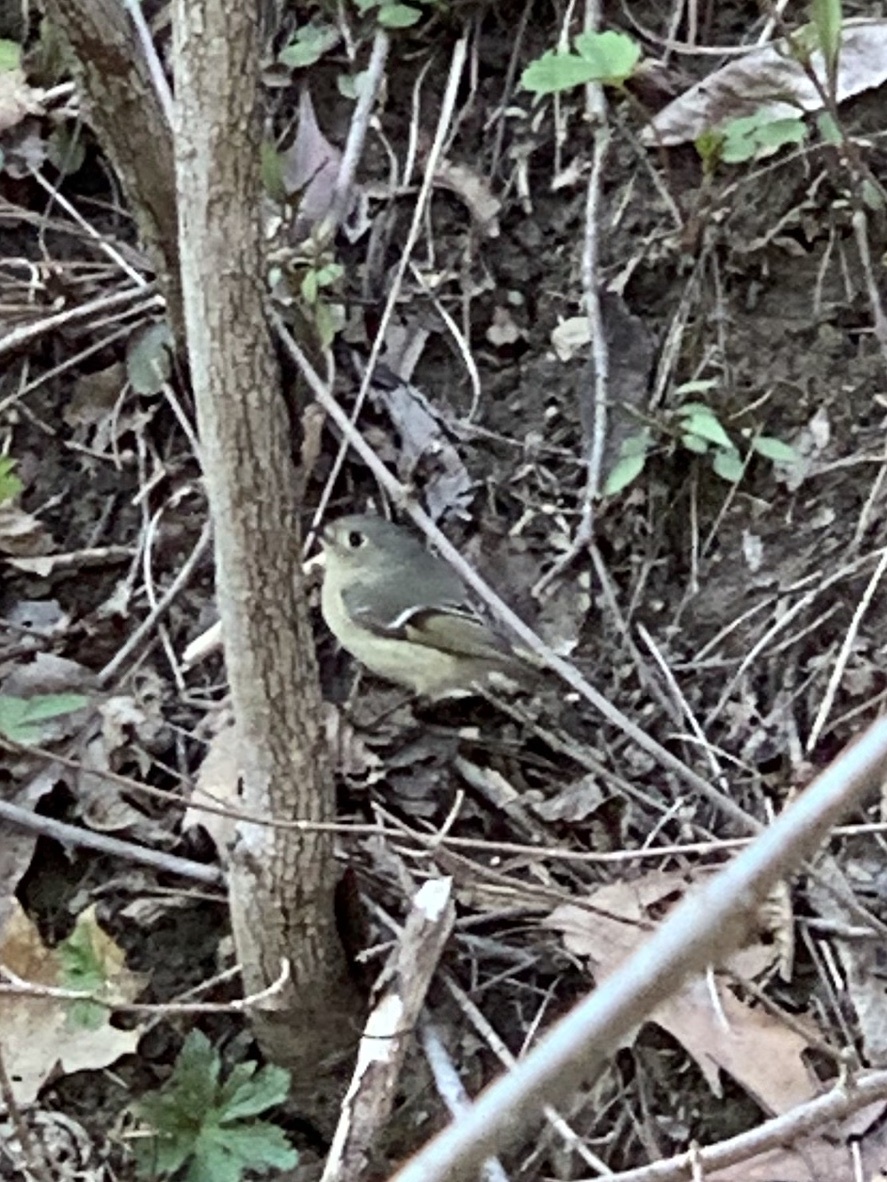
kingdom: Animalia
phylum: Chordata
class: Aves
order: Passeriformes
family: Regulidae
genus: Regulus
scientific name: Regulus calendula
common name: Ruby-crowned kinglet
